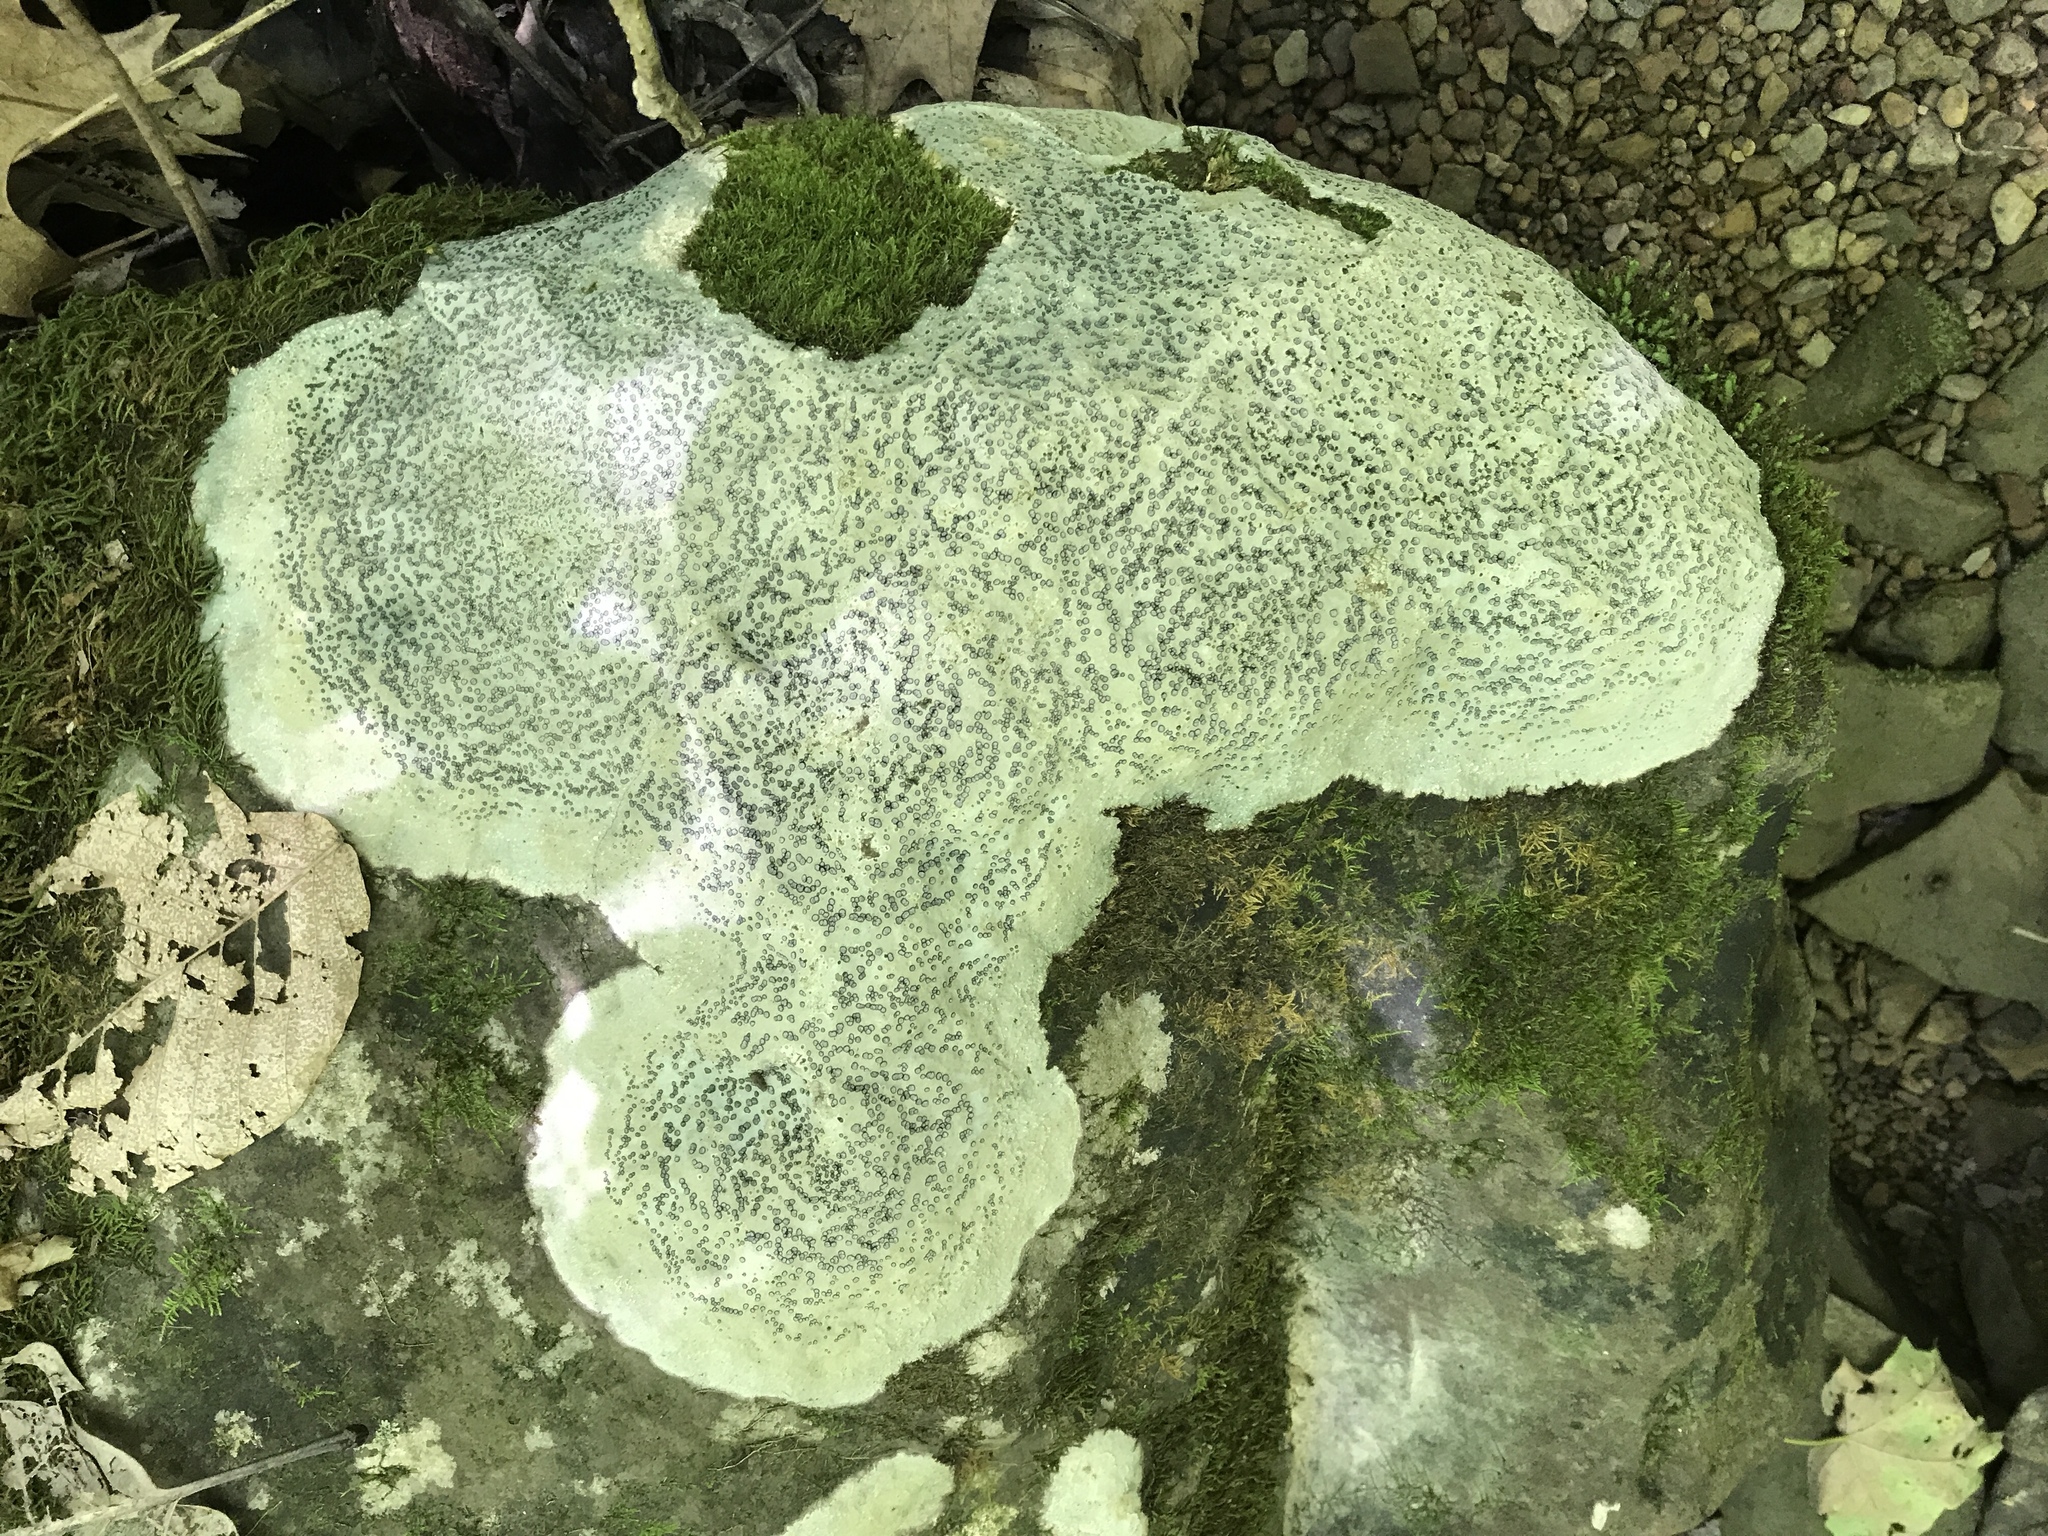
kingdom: Fungi
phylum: Ascomycota
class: Lecanoromycetes
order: Lecideales
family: Lecideaceae
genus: Porpidia
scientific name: Porpidia albocaerulescens
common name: Smokey-eyed boulder lichen
